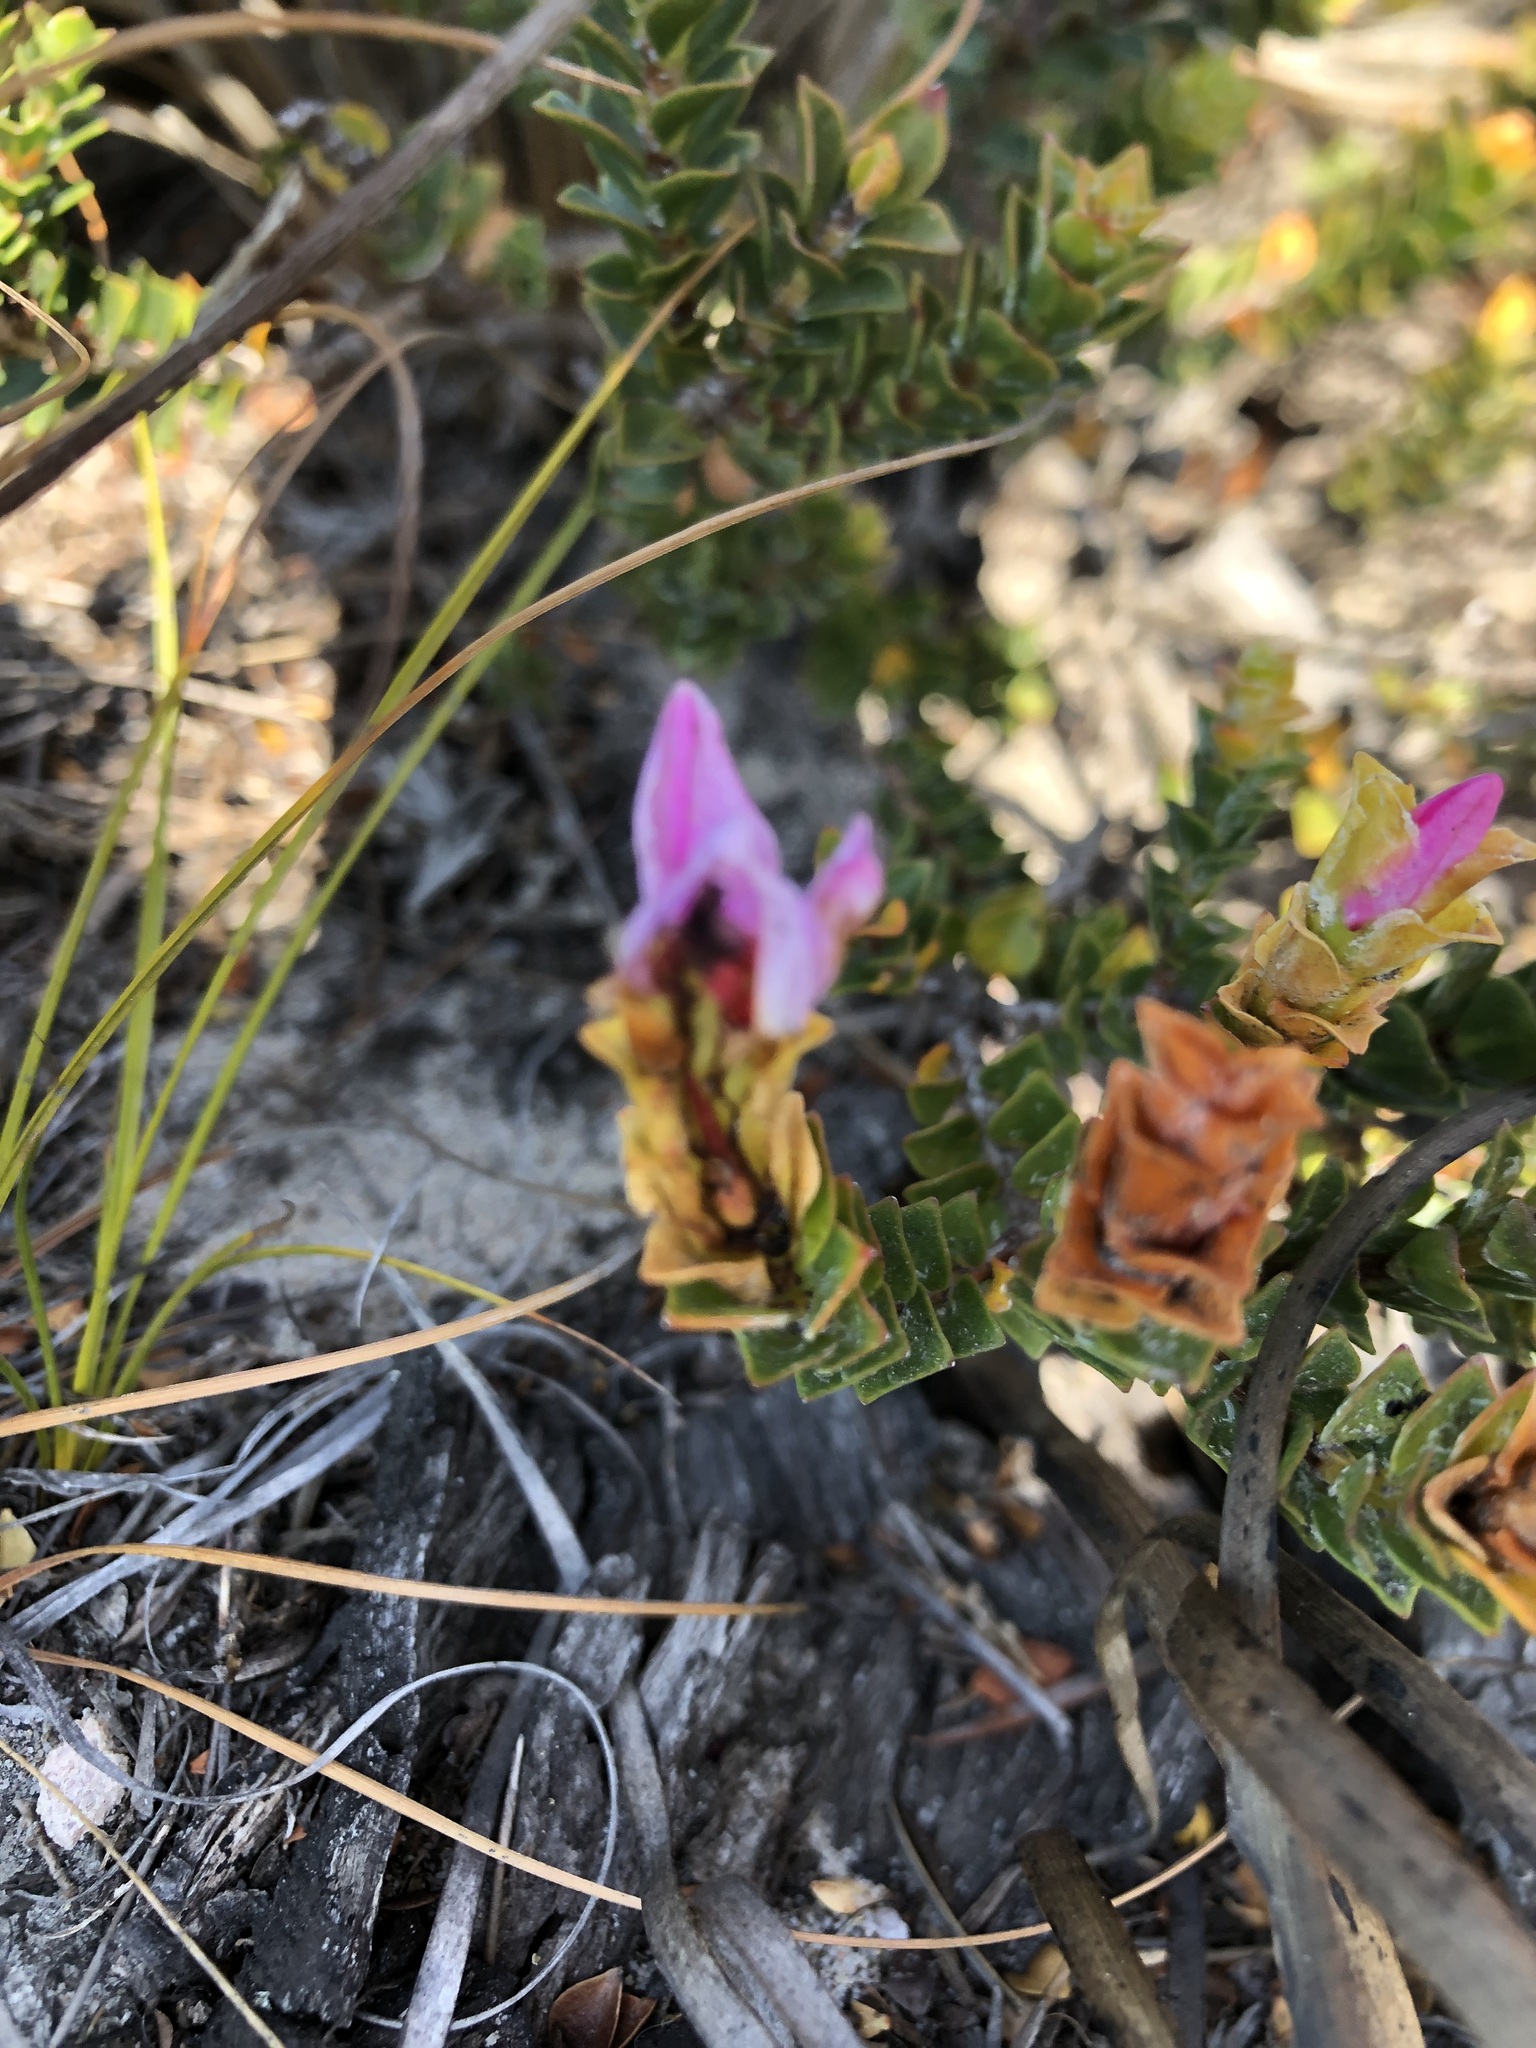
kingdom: Plantae
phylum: Tracheophyta
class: Magnoliopsida
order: Myrtales
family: Penaeaceae
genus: Saltera
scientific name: Saltera sarcocolla
